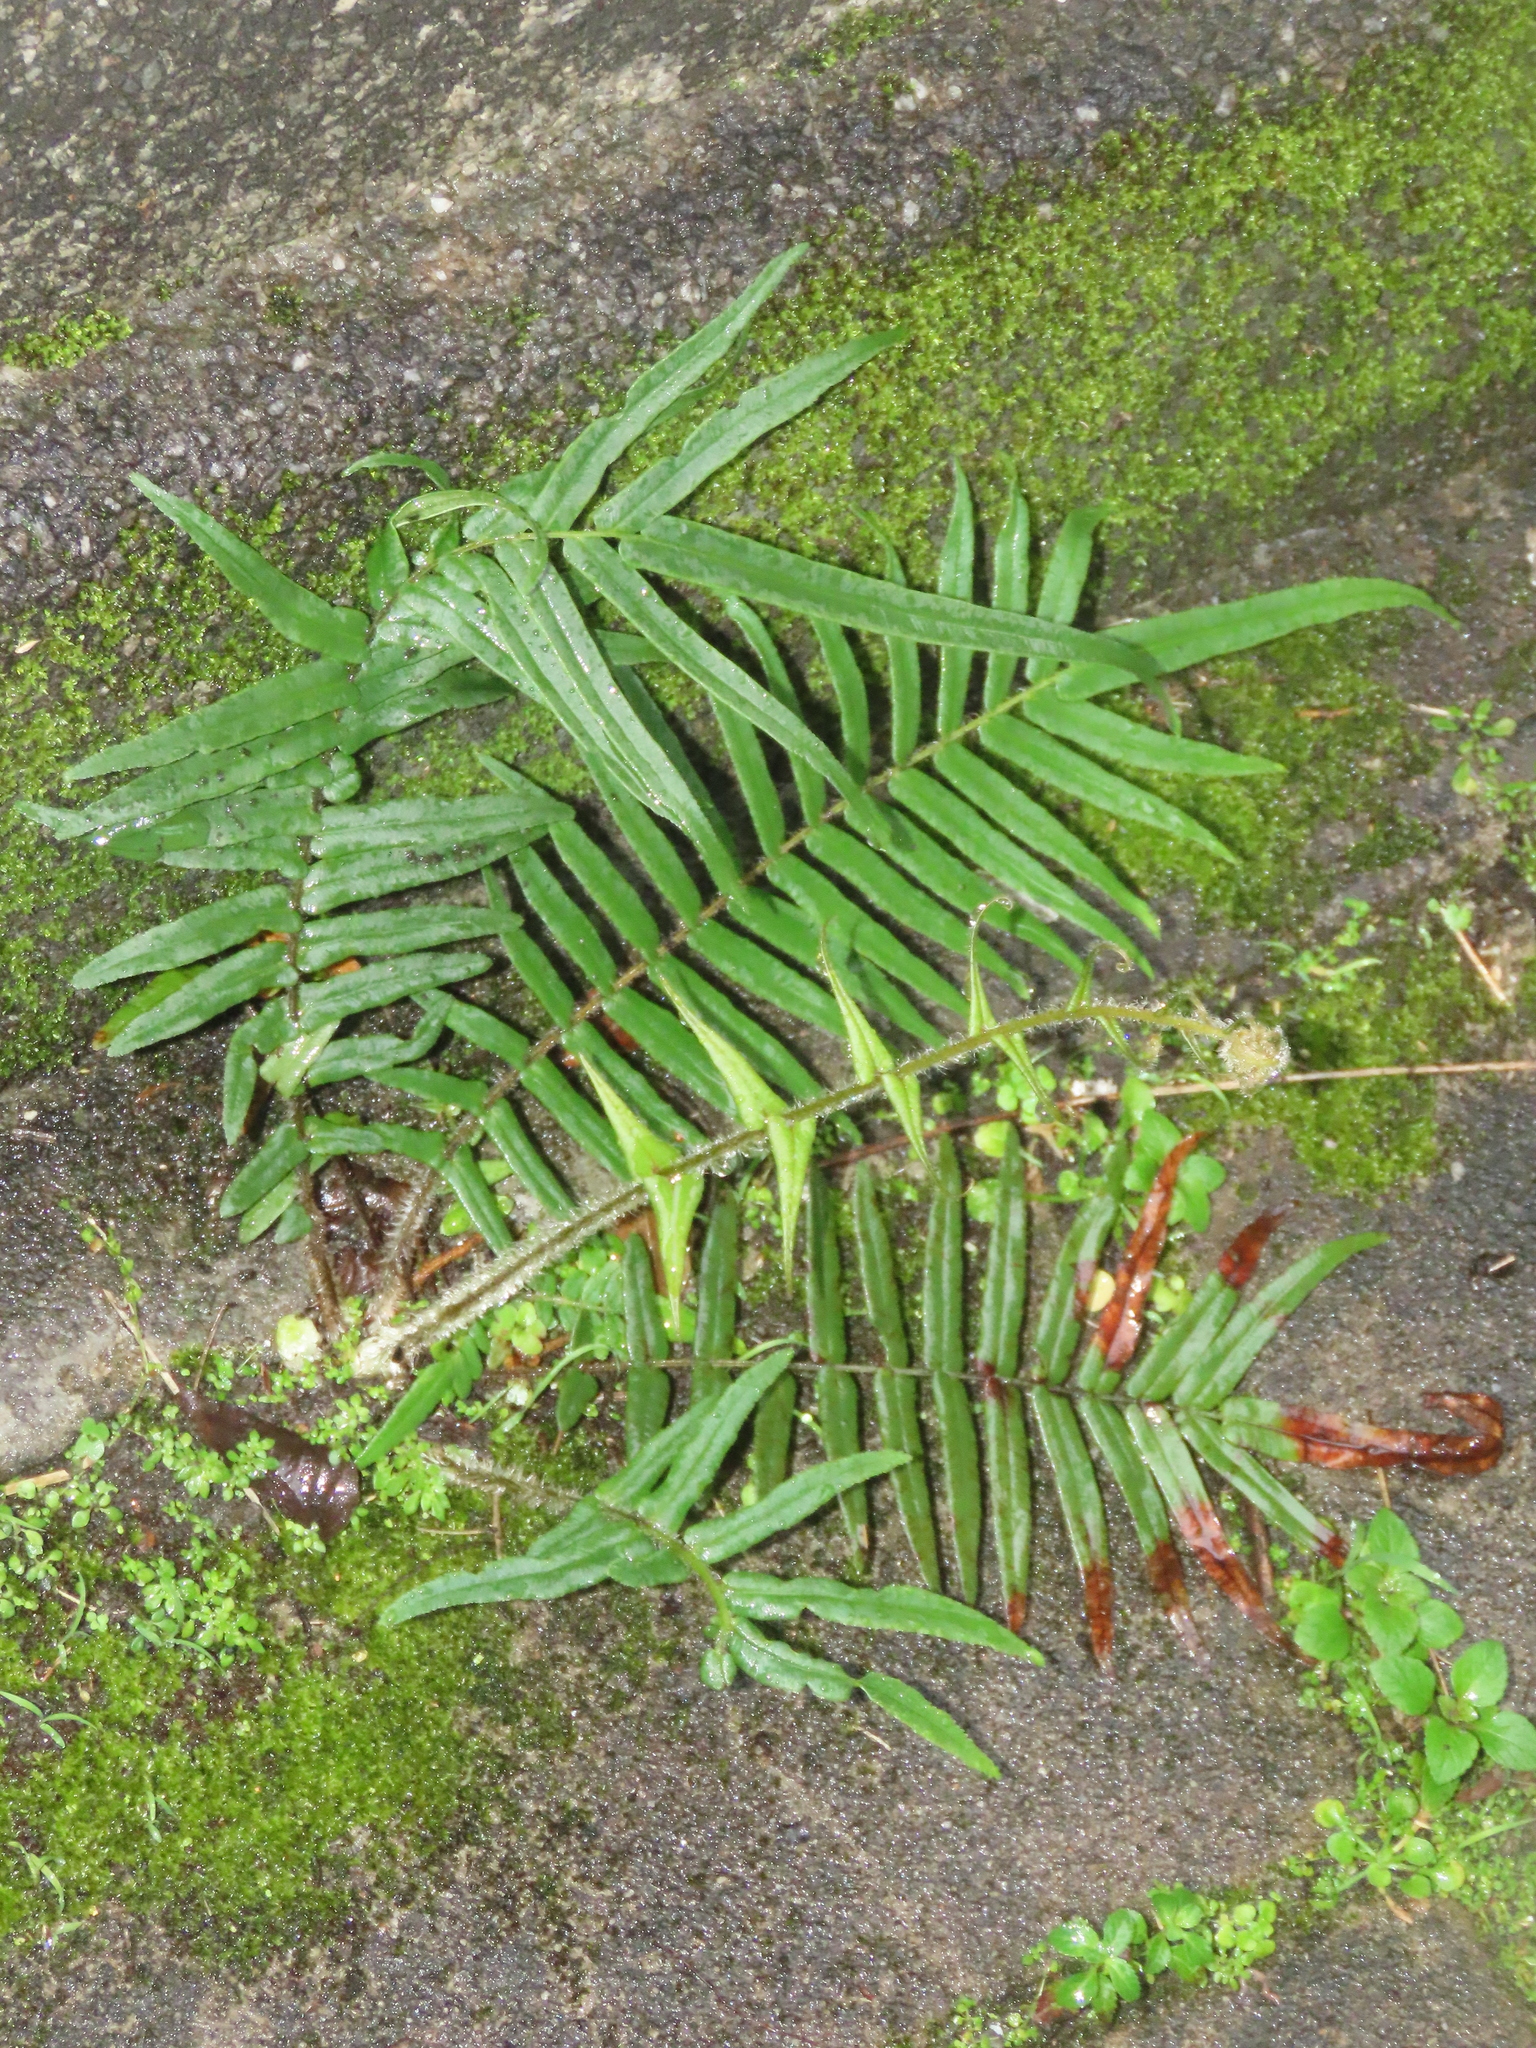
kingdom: Plantae
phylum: Tracheophyta
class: Polypodiopsida
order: Polypodiales
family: Pteridaceae
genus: Pteris
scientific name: Pteris vittata
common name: Ladder brake
